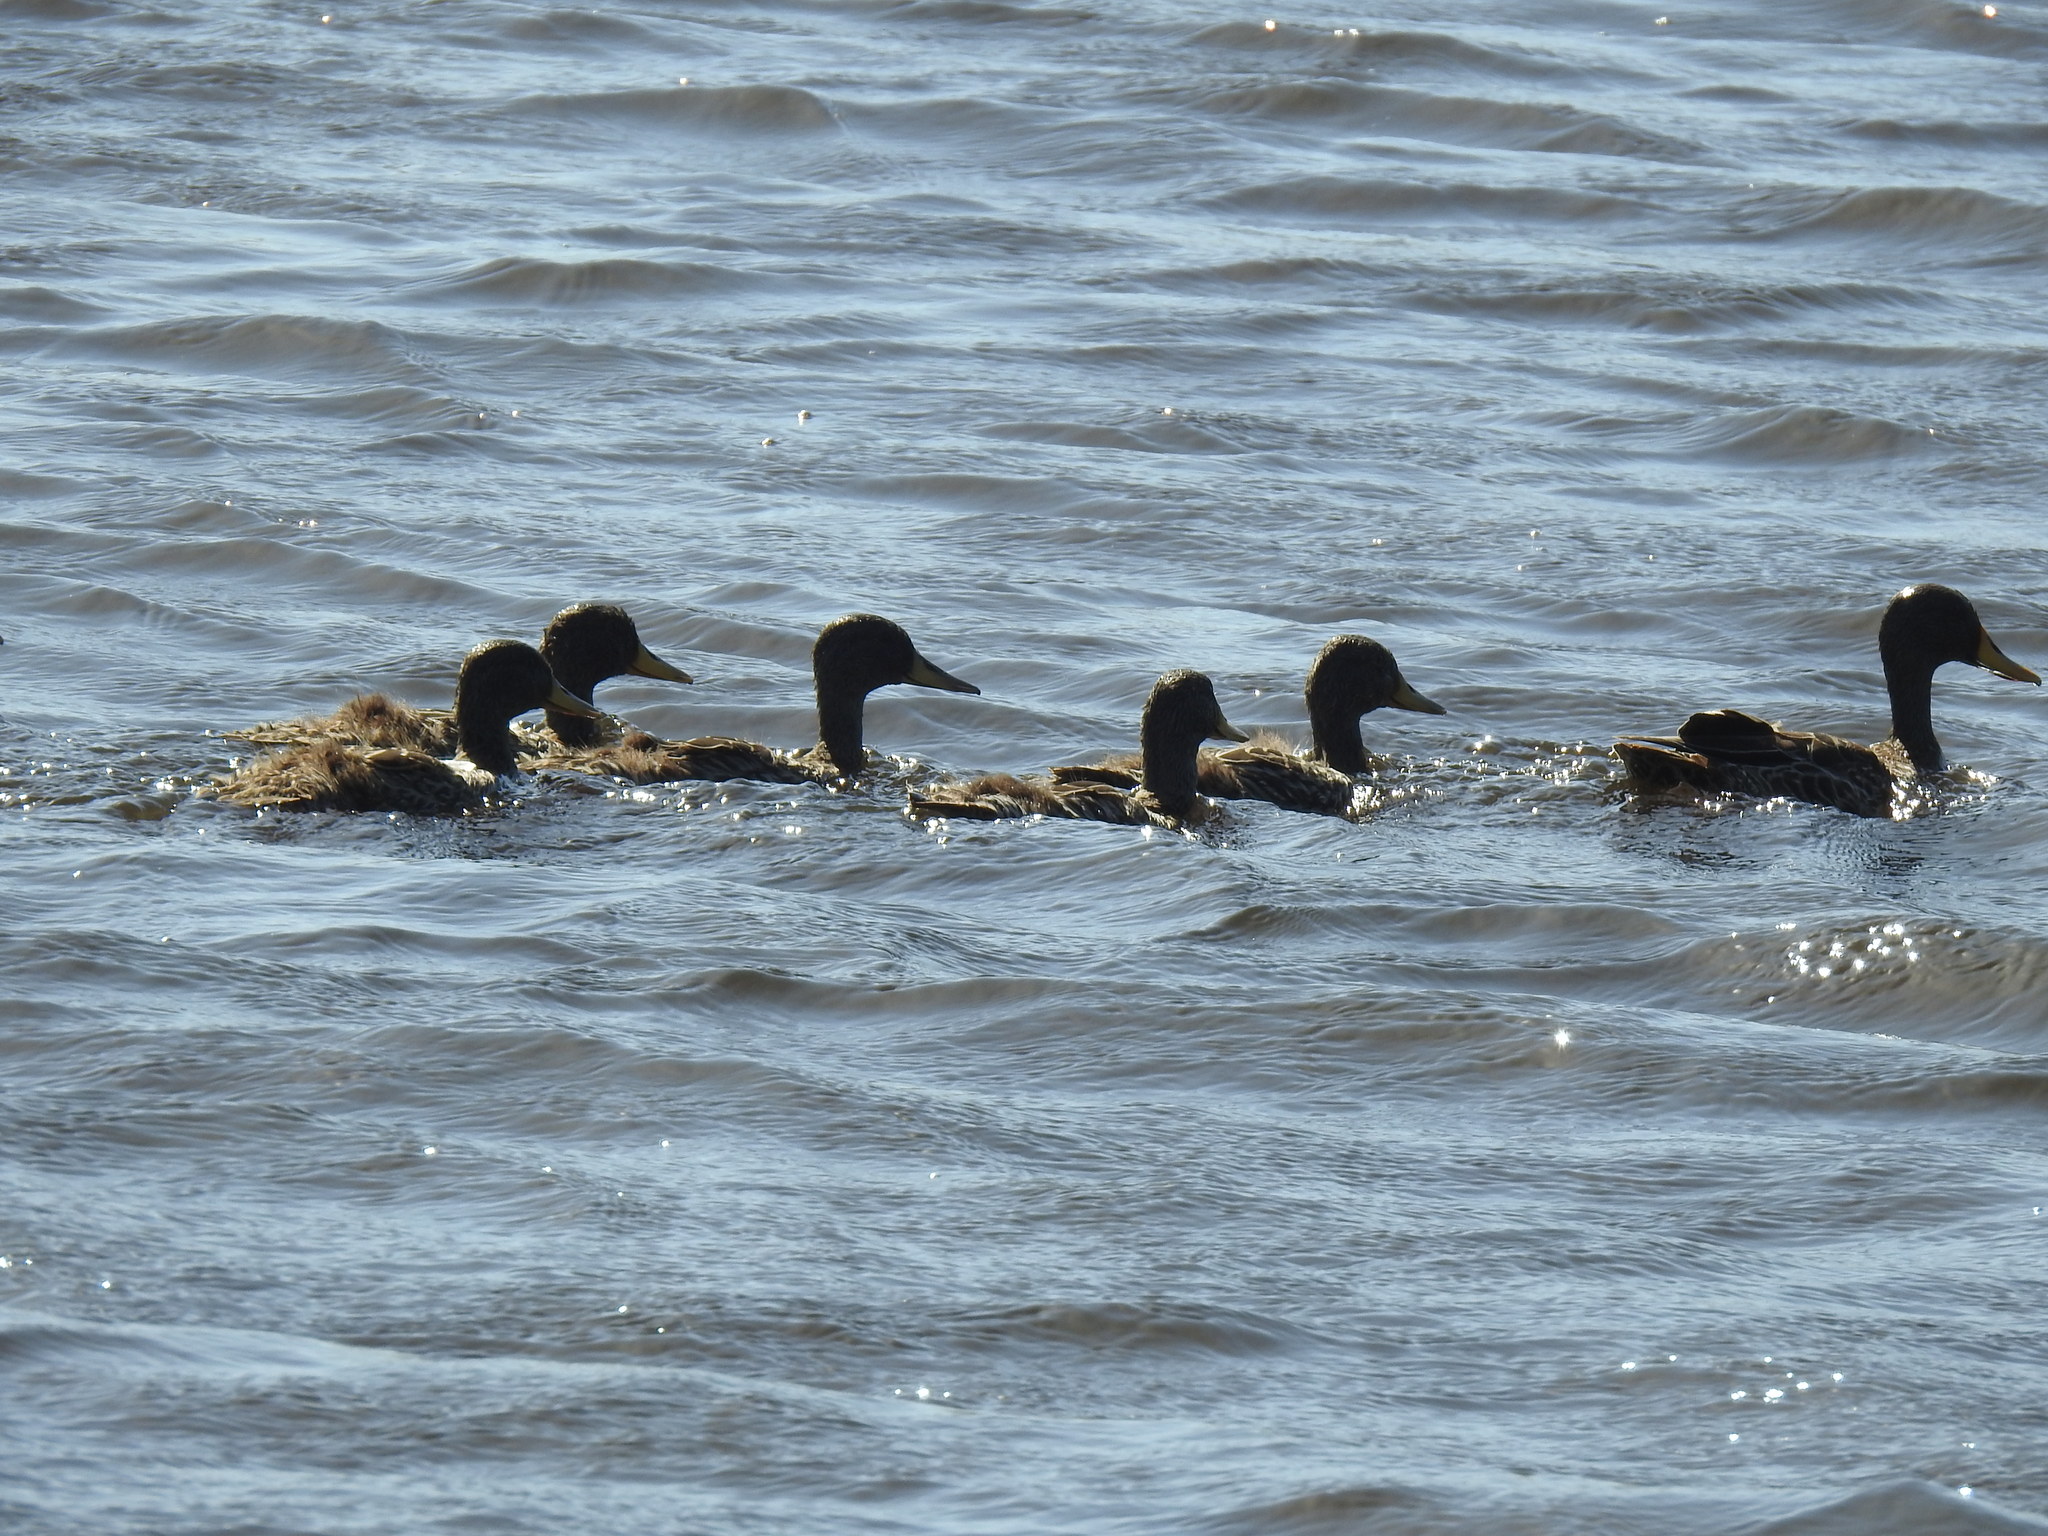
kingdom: Animalia
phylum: Chordata
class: Aves
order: Anseriformes
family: Anatidae
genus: Anas
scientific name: Anas undulata
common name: Yellow-billed duck
